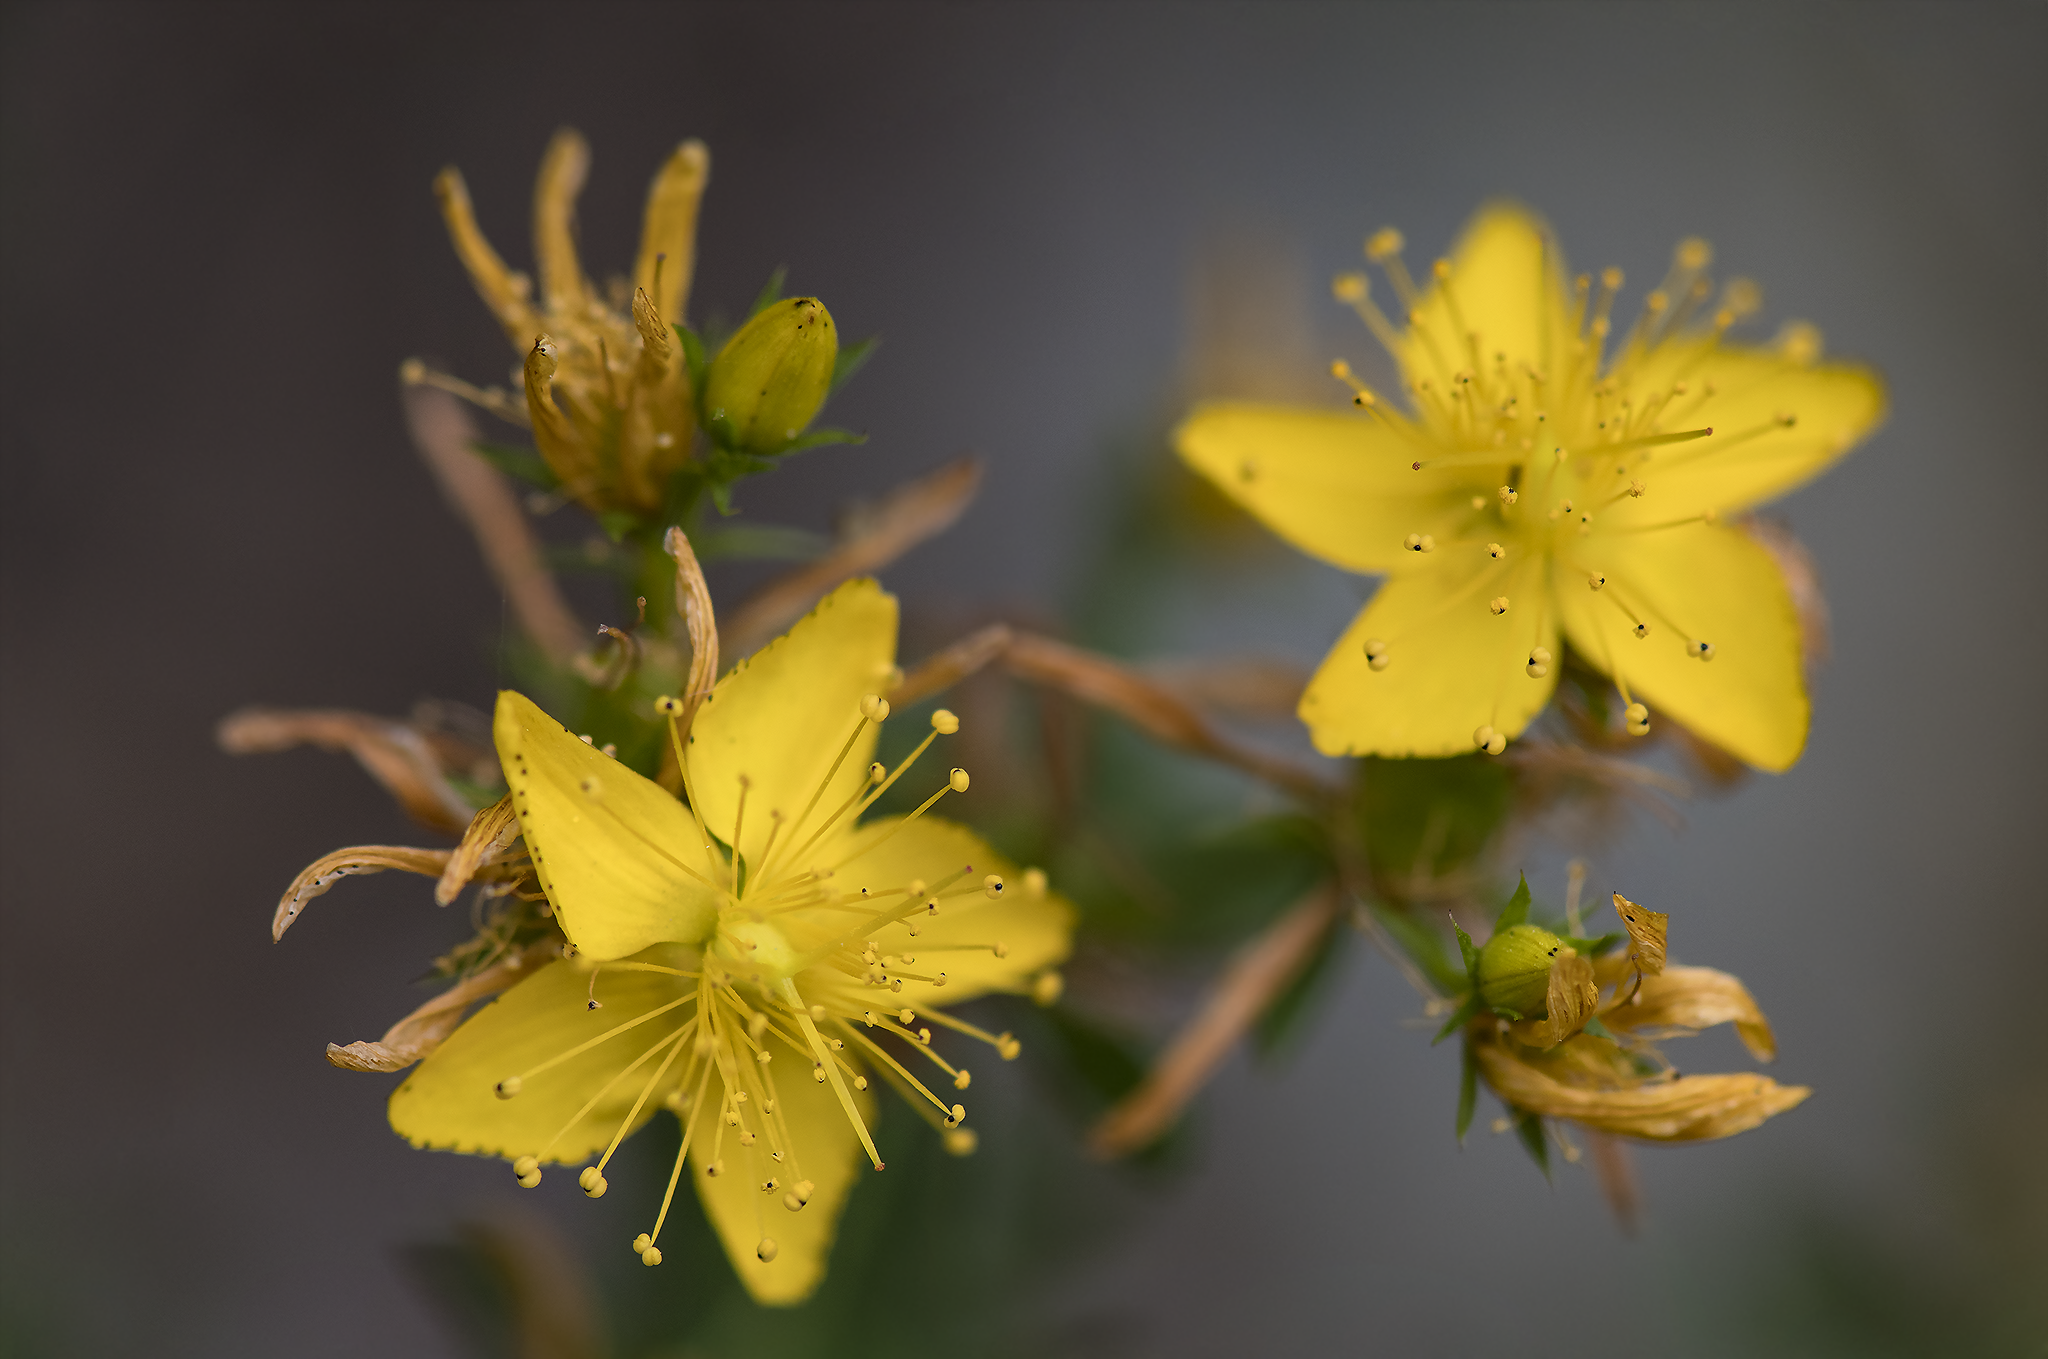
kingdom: Plantae
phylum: Tracheophyta
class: Magnoliopsida
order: Malpighiales
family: Hypericaceae
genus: Hypericum
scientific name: Hypericum perforatum
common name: Common st. johnswort
